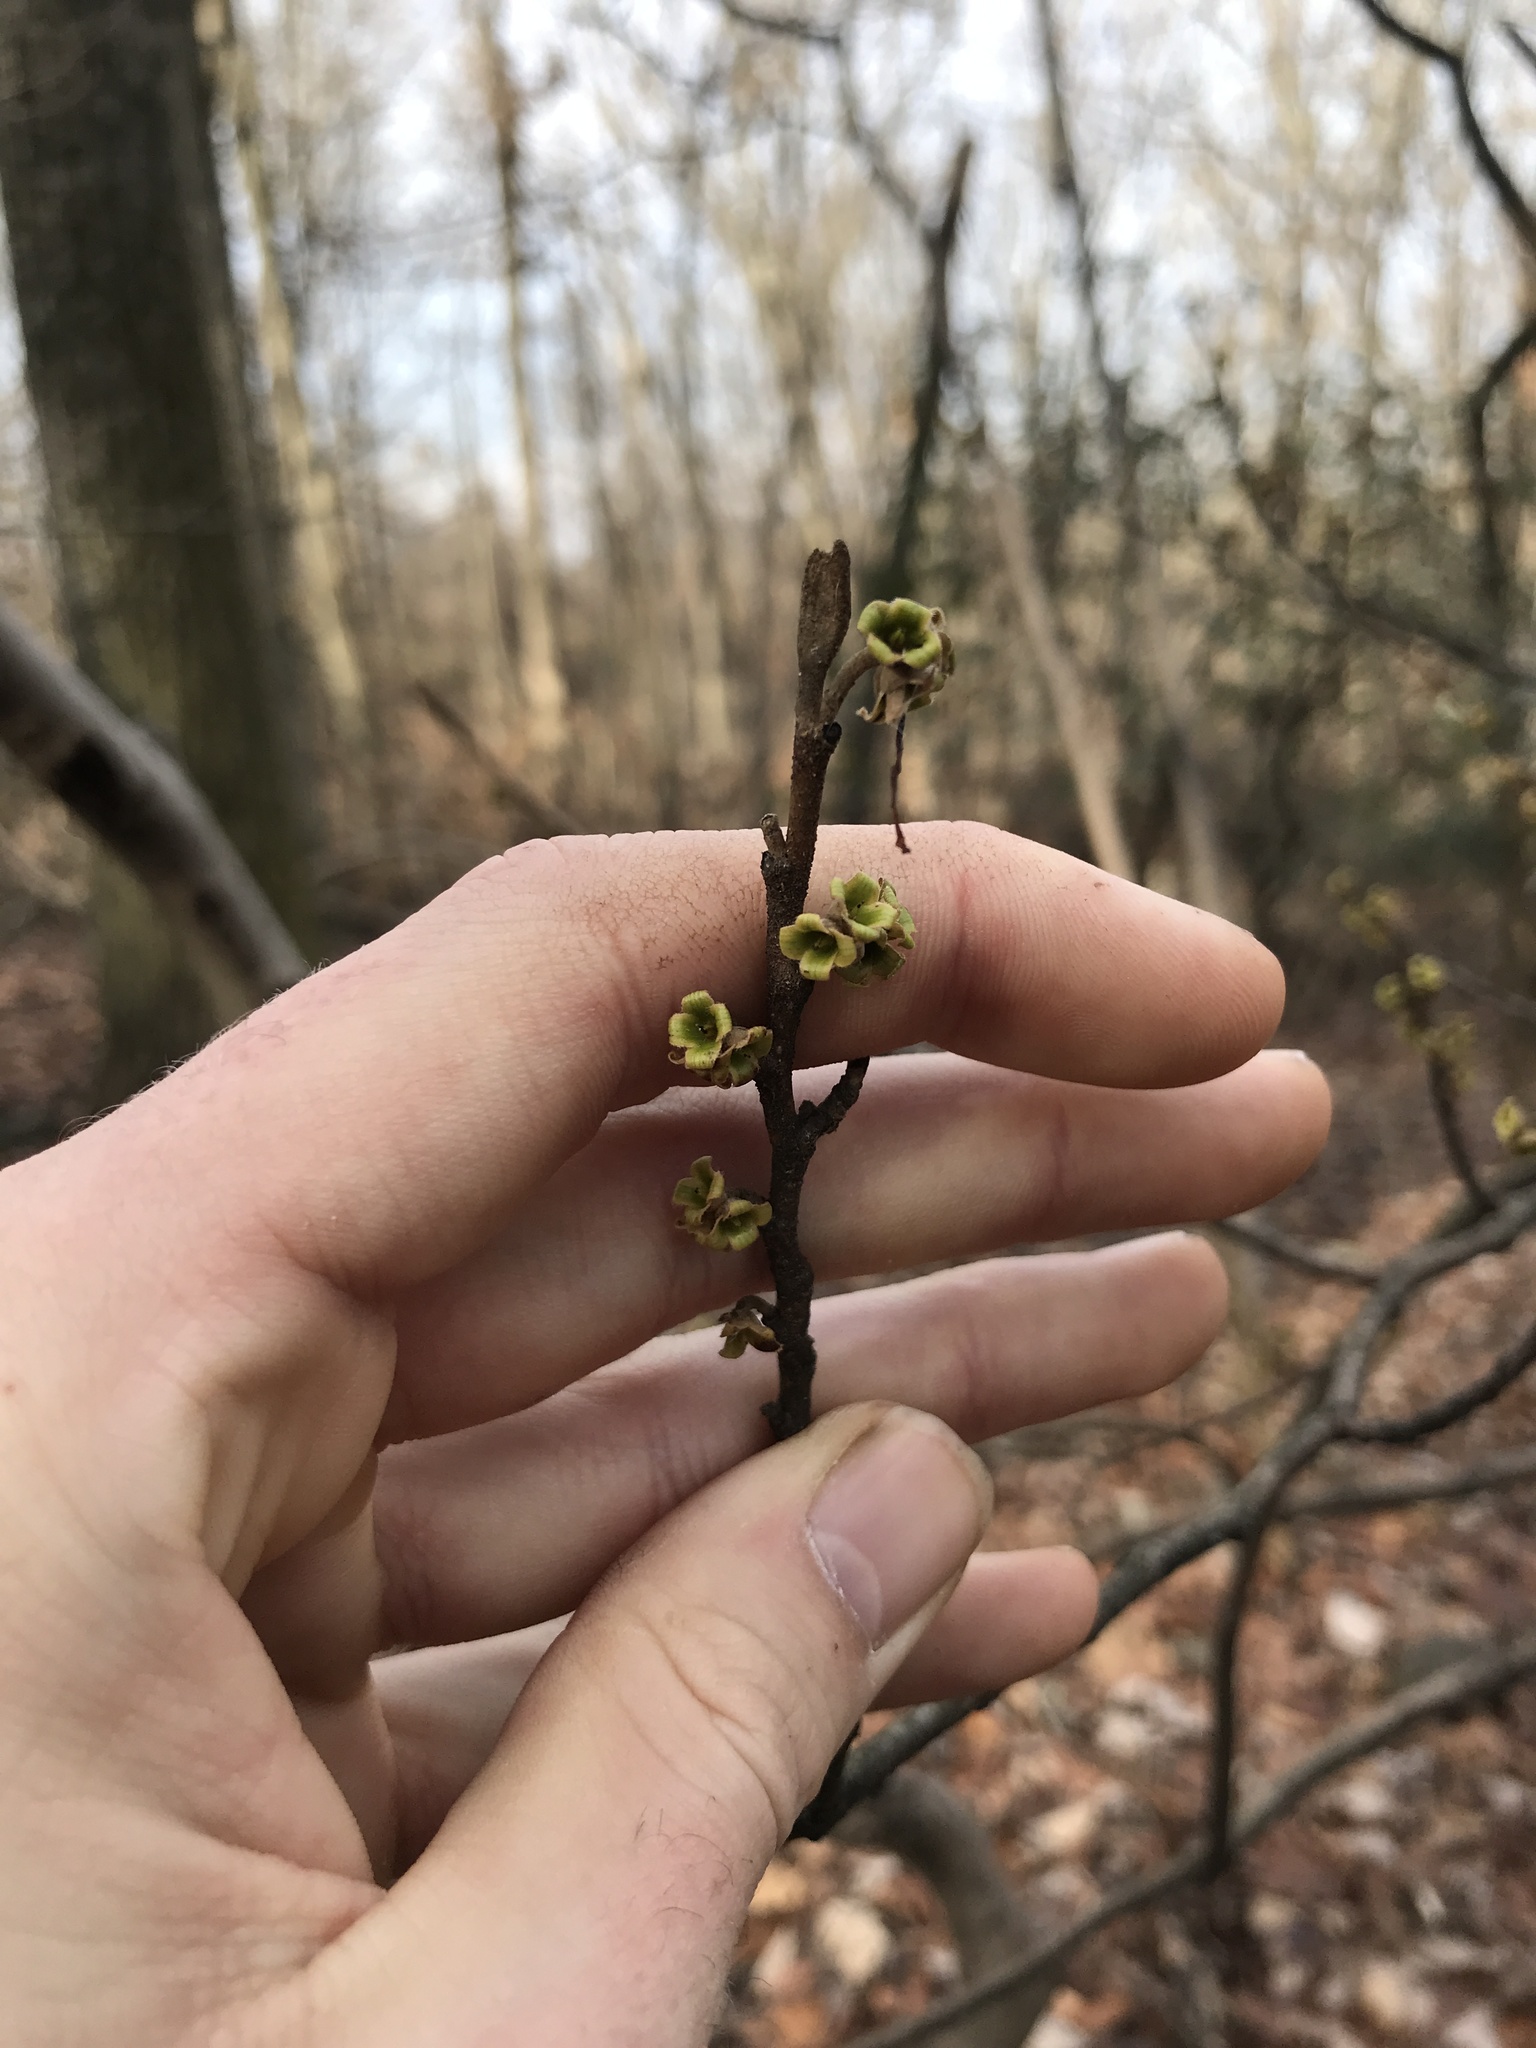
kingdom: Plantae
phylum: Tracheophyta
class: Magnoliopsida
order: Saxifragales
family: Hamamelidaceae
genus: Hamamelis
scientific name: Hamamelis virginiana
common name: Witch-hazel
